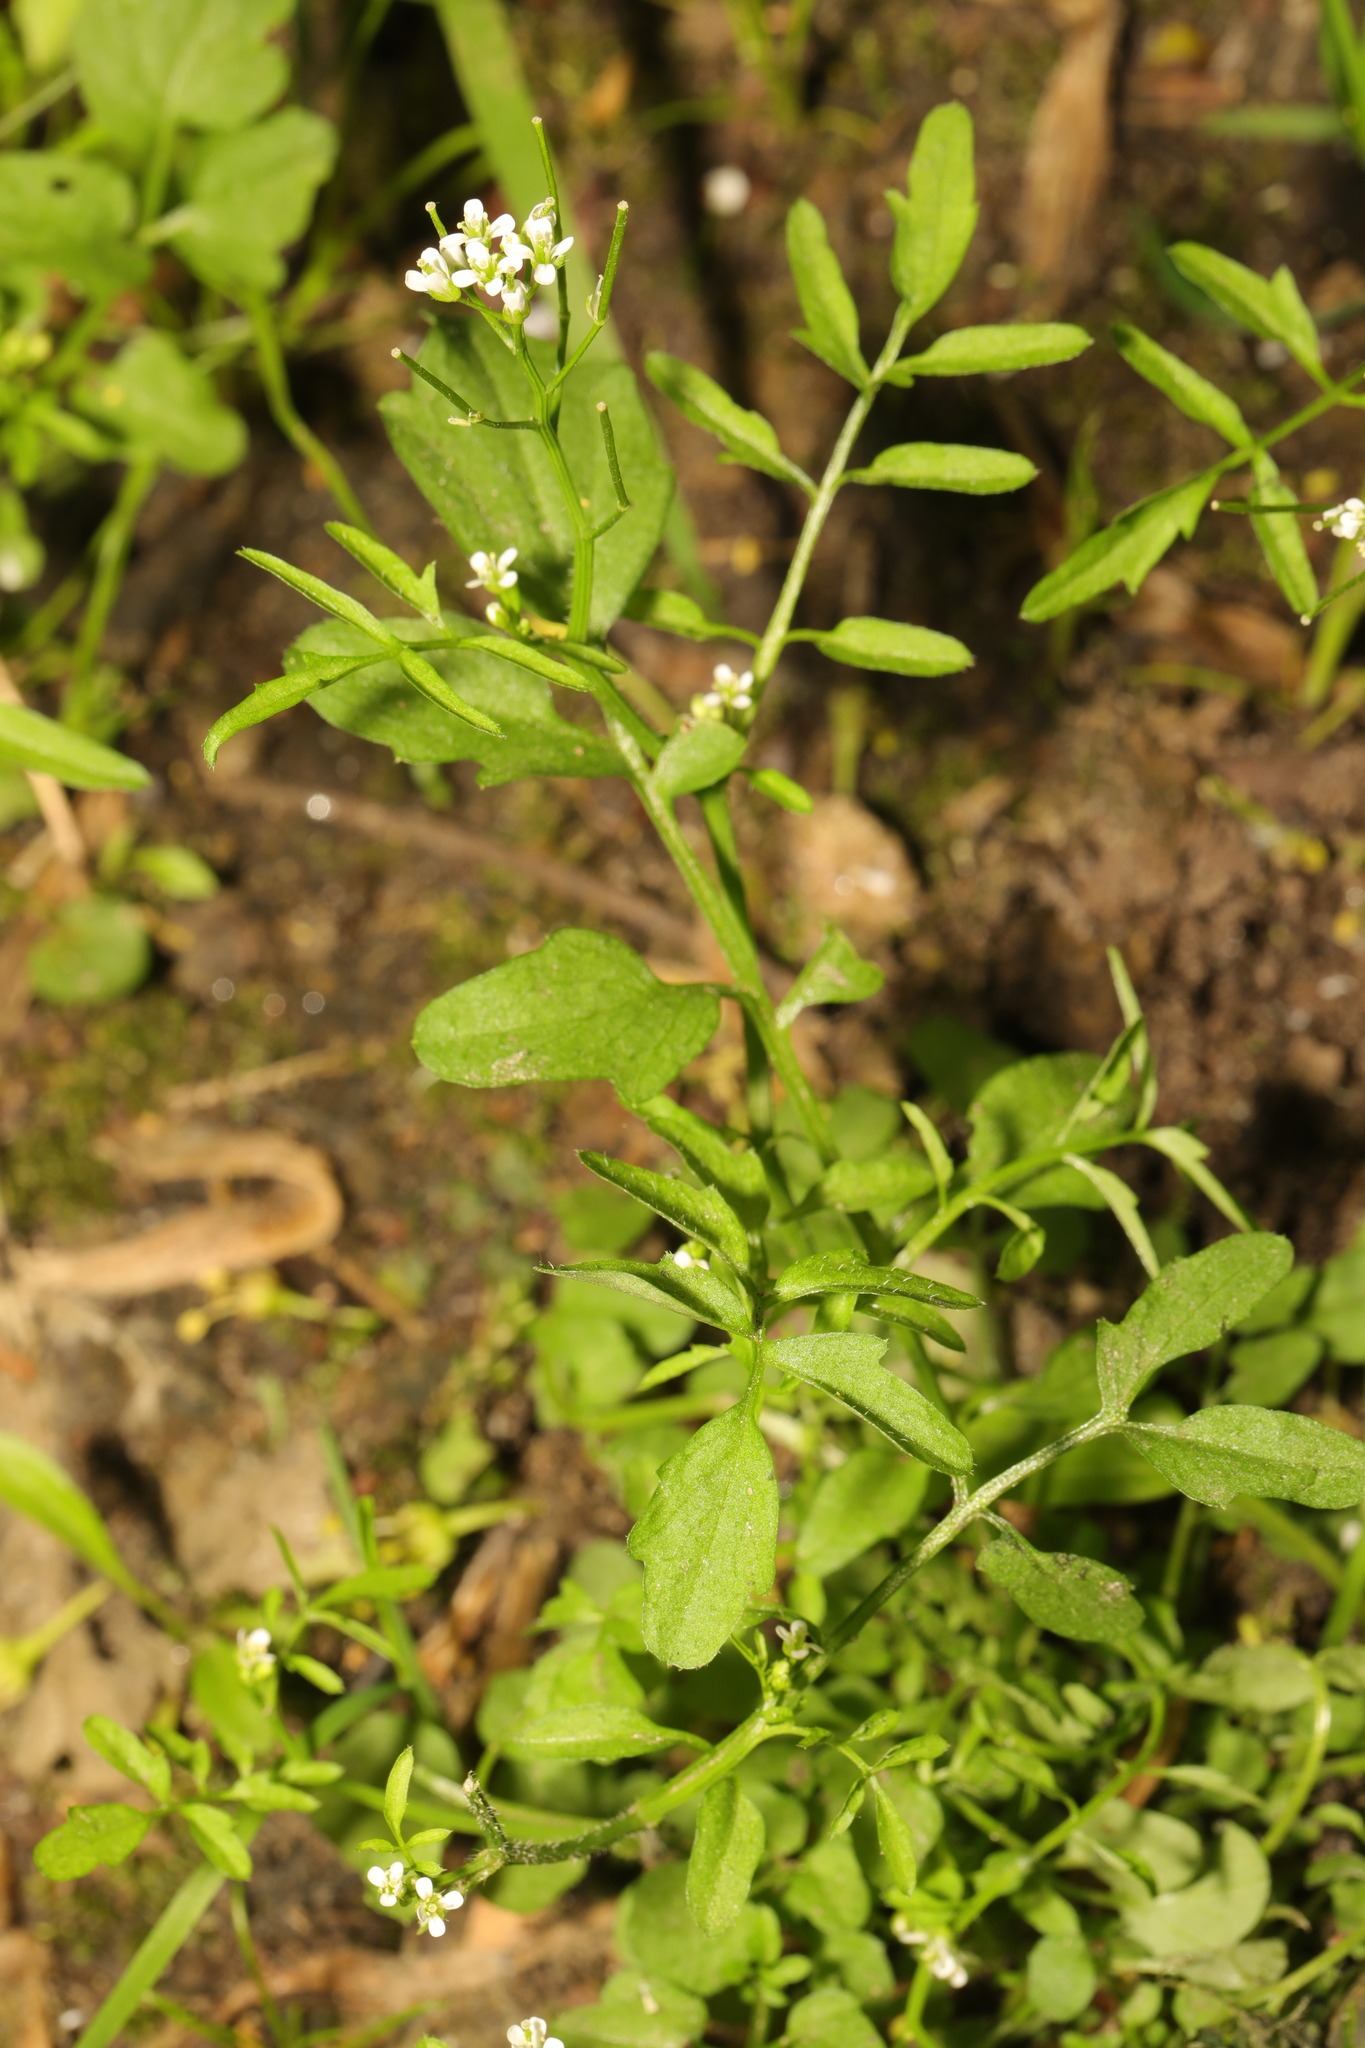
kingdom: Plantae
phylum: Tracheophyta
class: Magnoliopsida
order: Brassicales
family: Brassicaceae
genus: Cardamine
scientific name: Cardamine flexuosa
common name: Woodland bittercress
